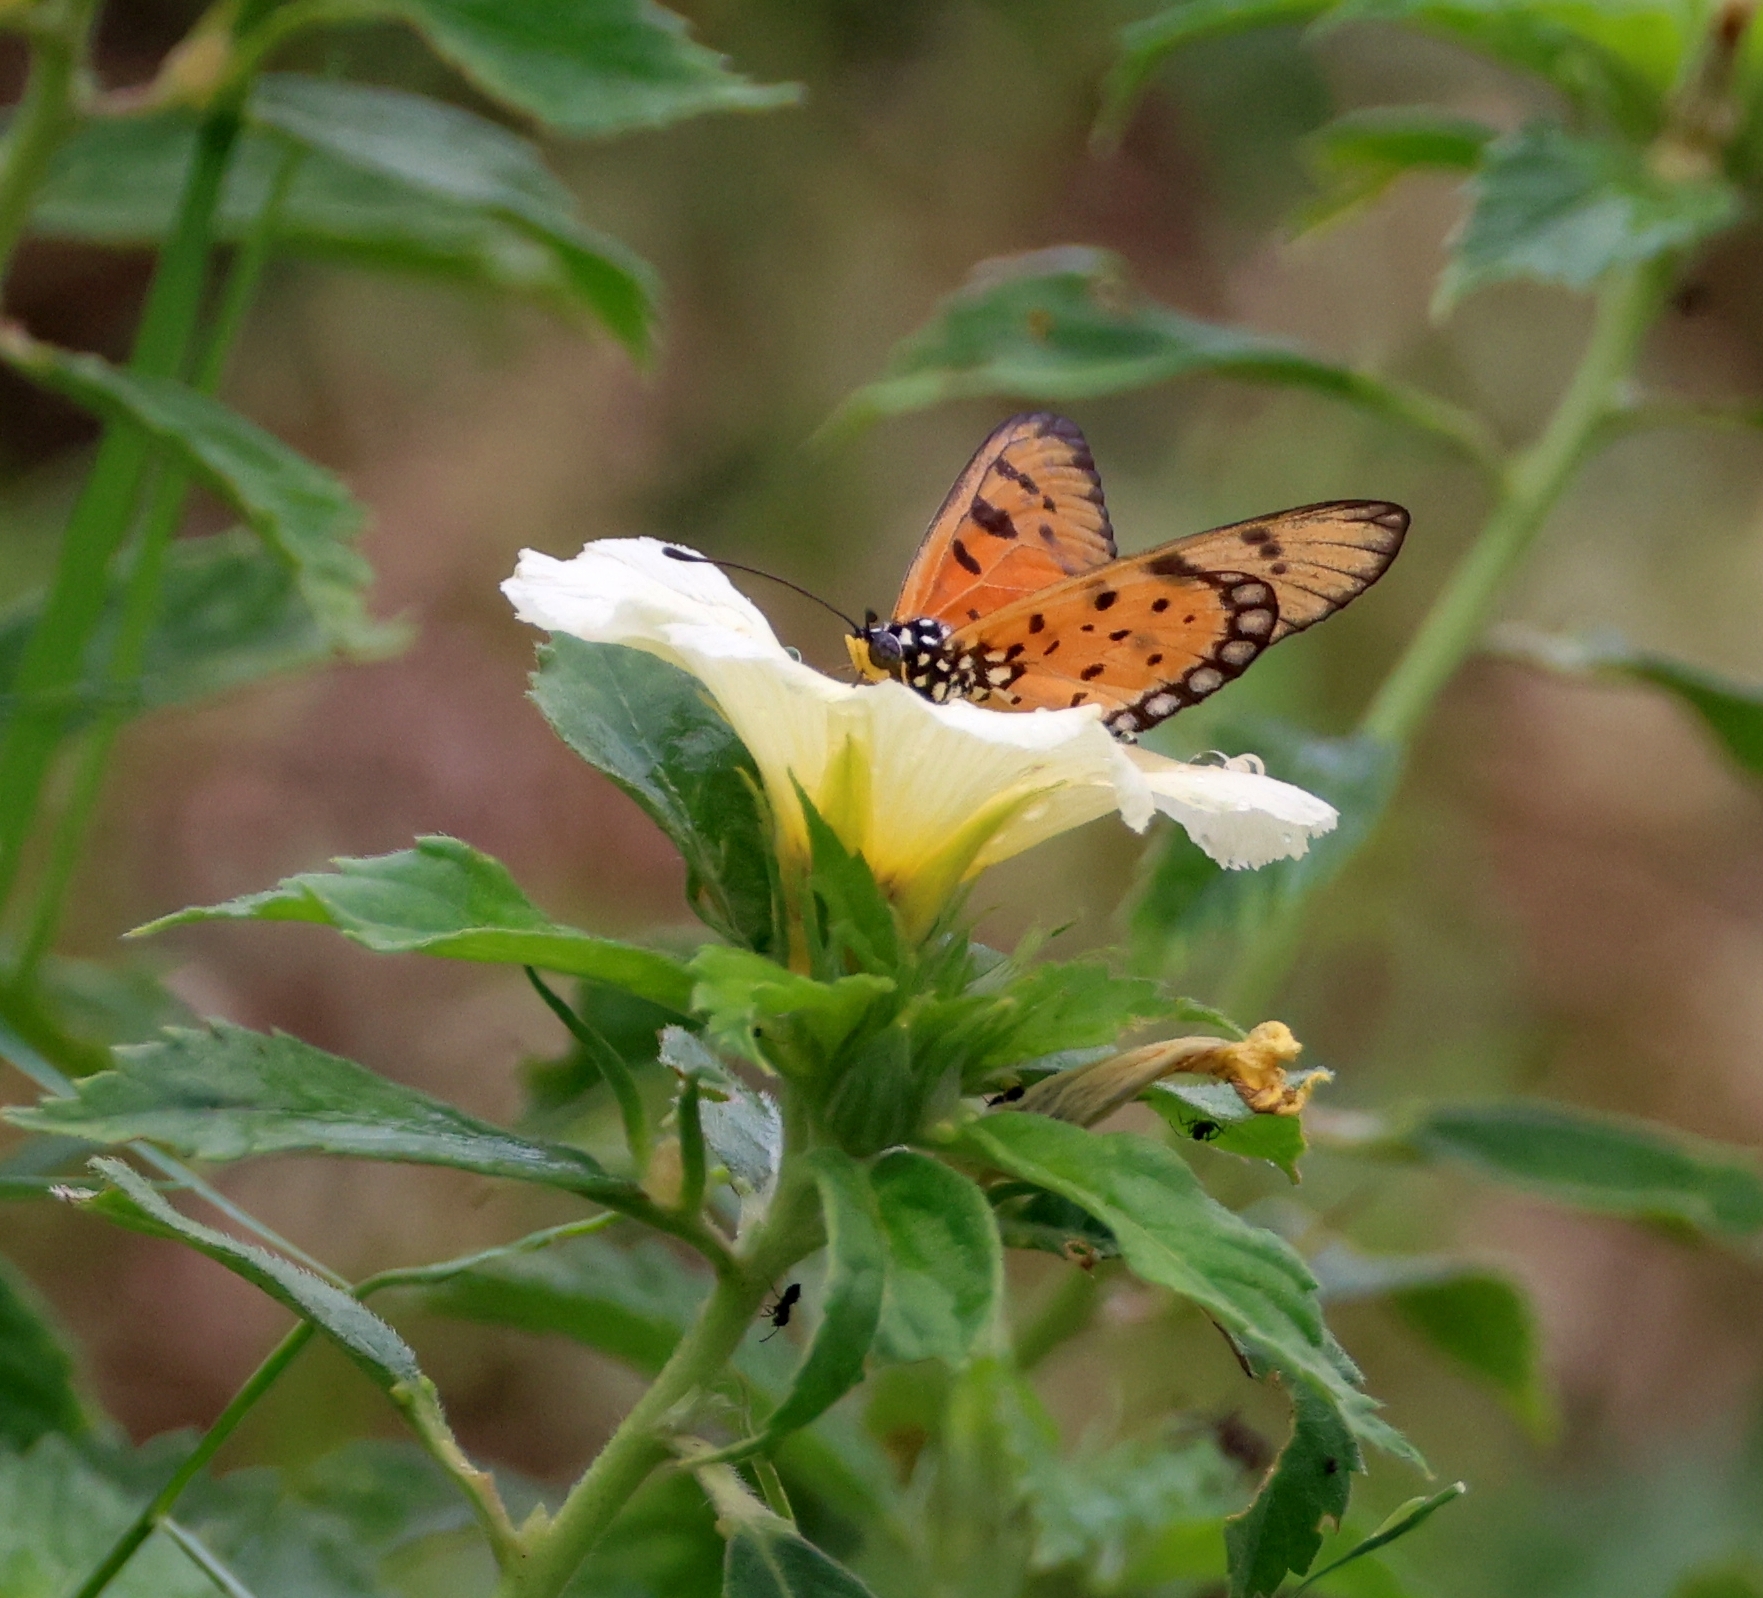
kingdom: Animalia
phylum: Arthropoda
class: Insecta
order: Lepidoptera
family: Nymphalidae
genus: Acraea
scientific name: Acraea terpsicore
